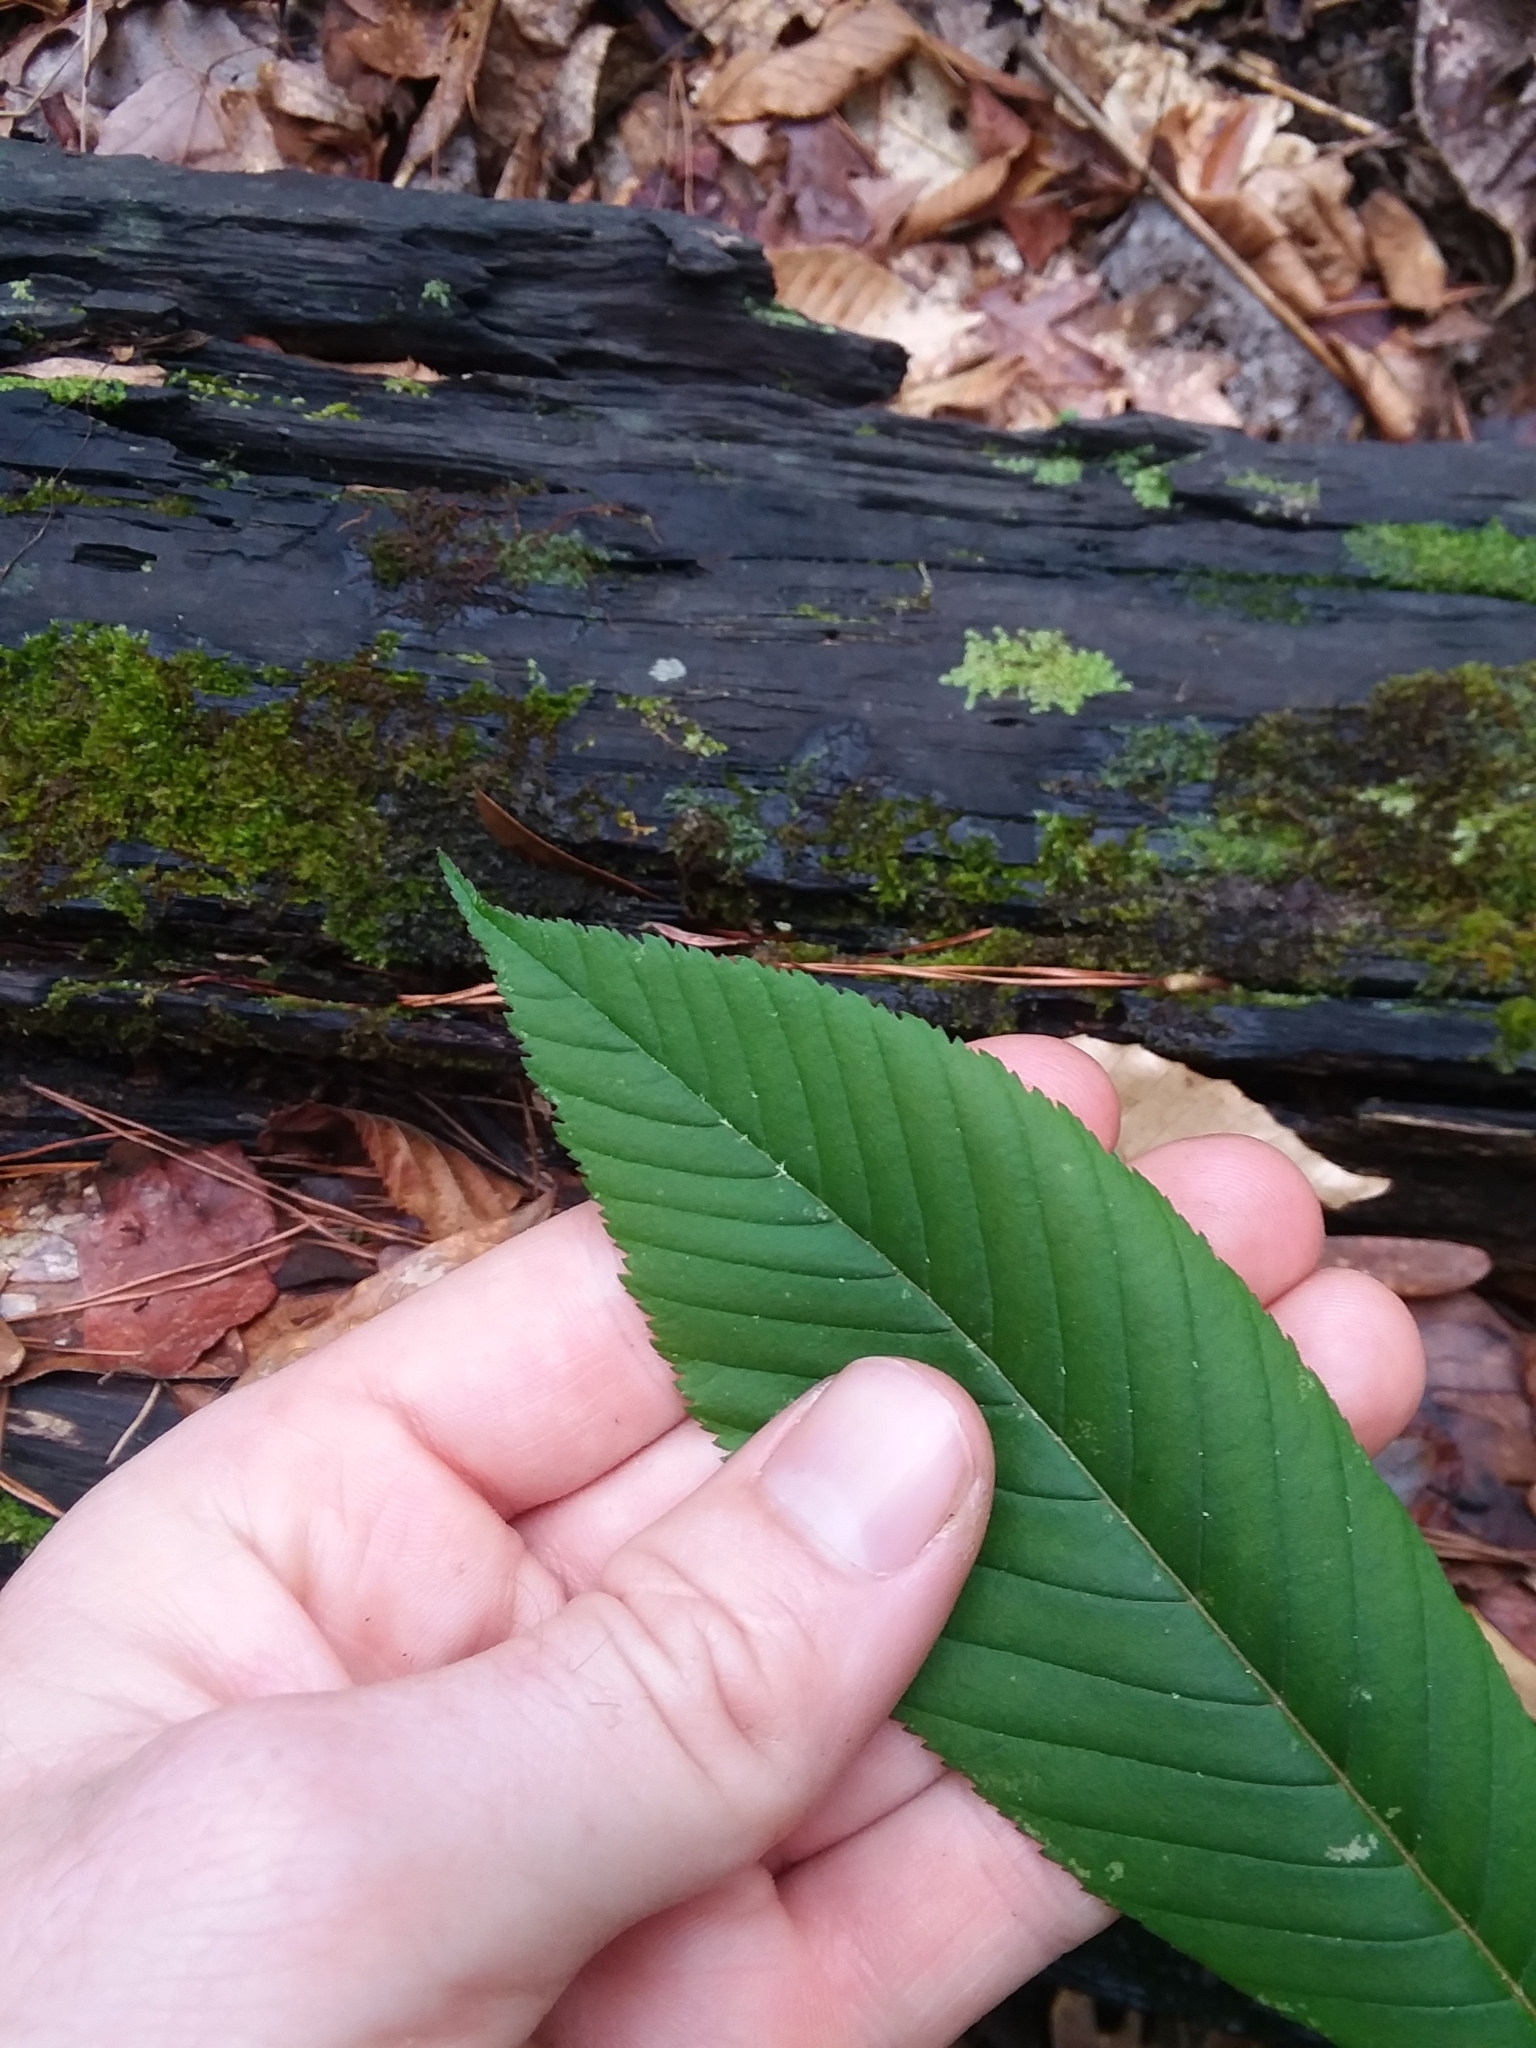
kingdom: Plantae
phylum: Tracheophyta
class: Magnoliopsida
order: Sapindales
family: Sapindaceae
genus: Aesculus
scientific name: Aesculus pavia
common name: Red buckeye
